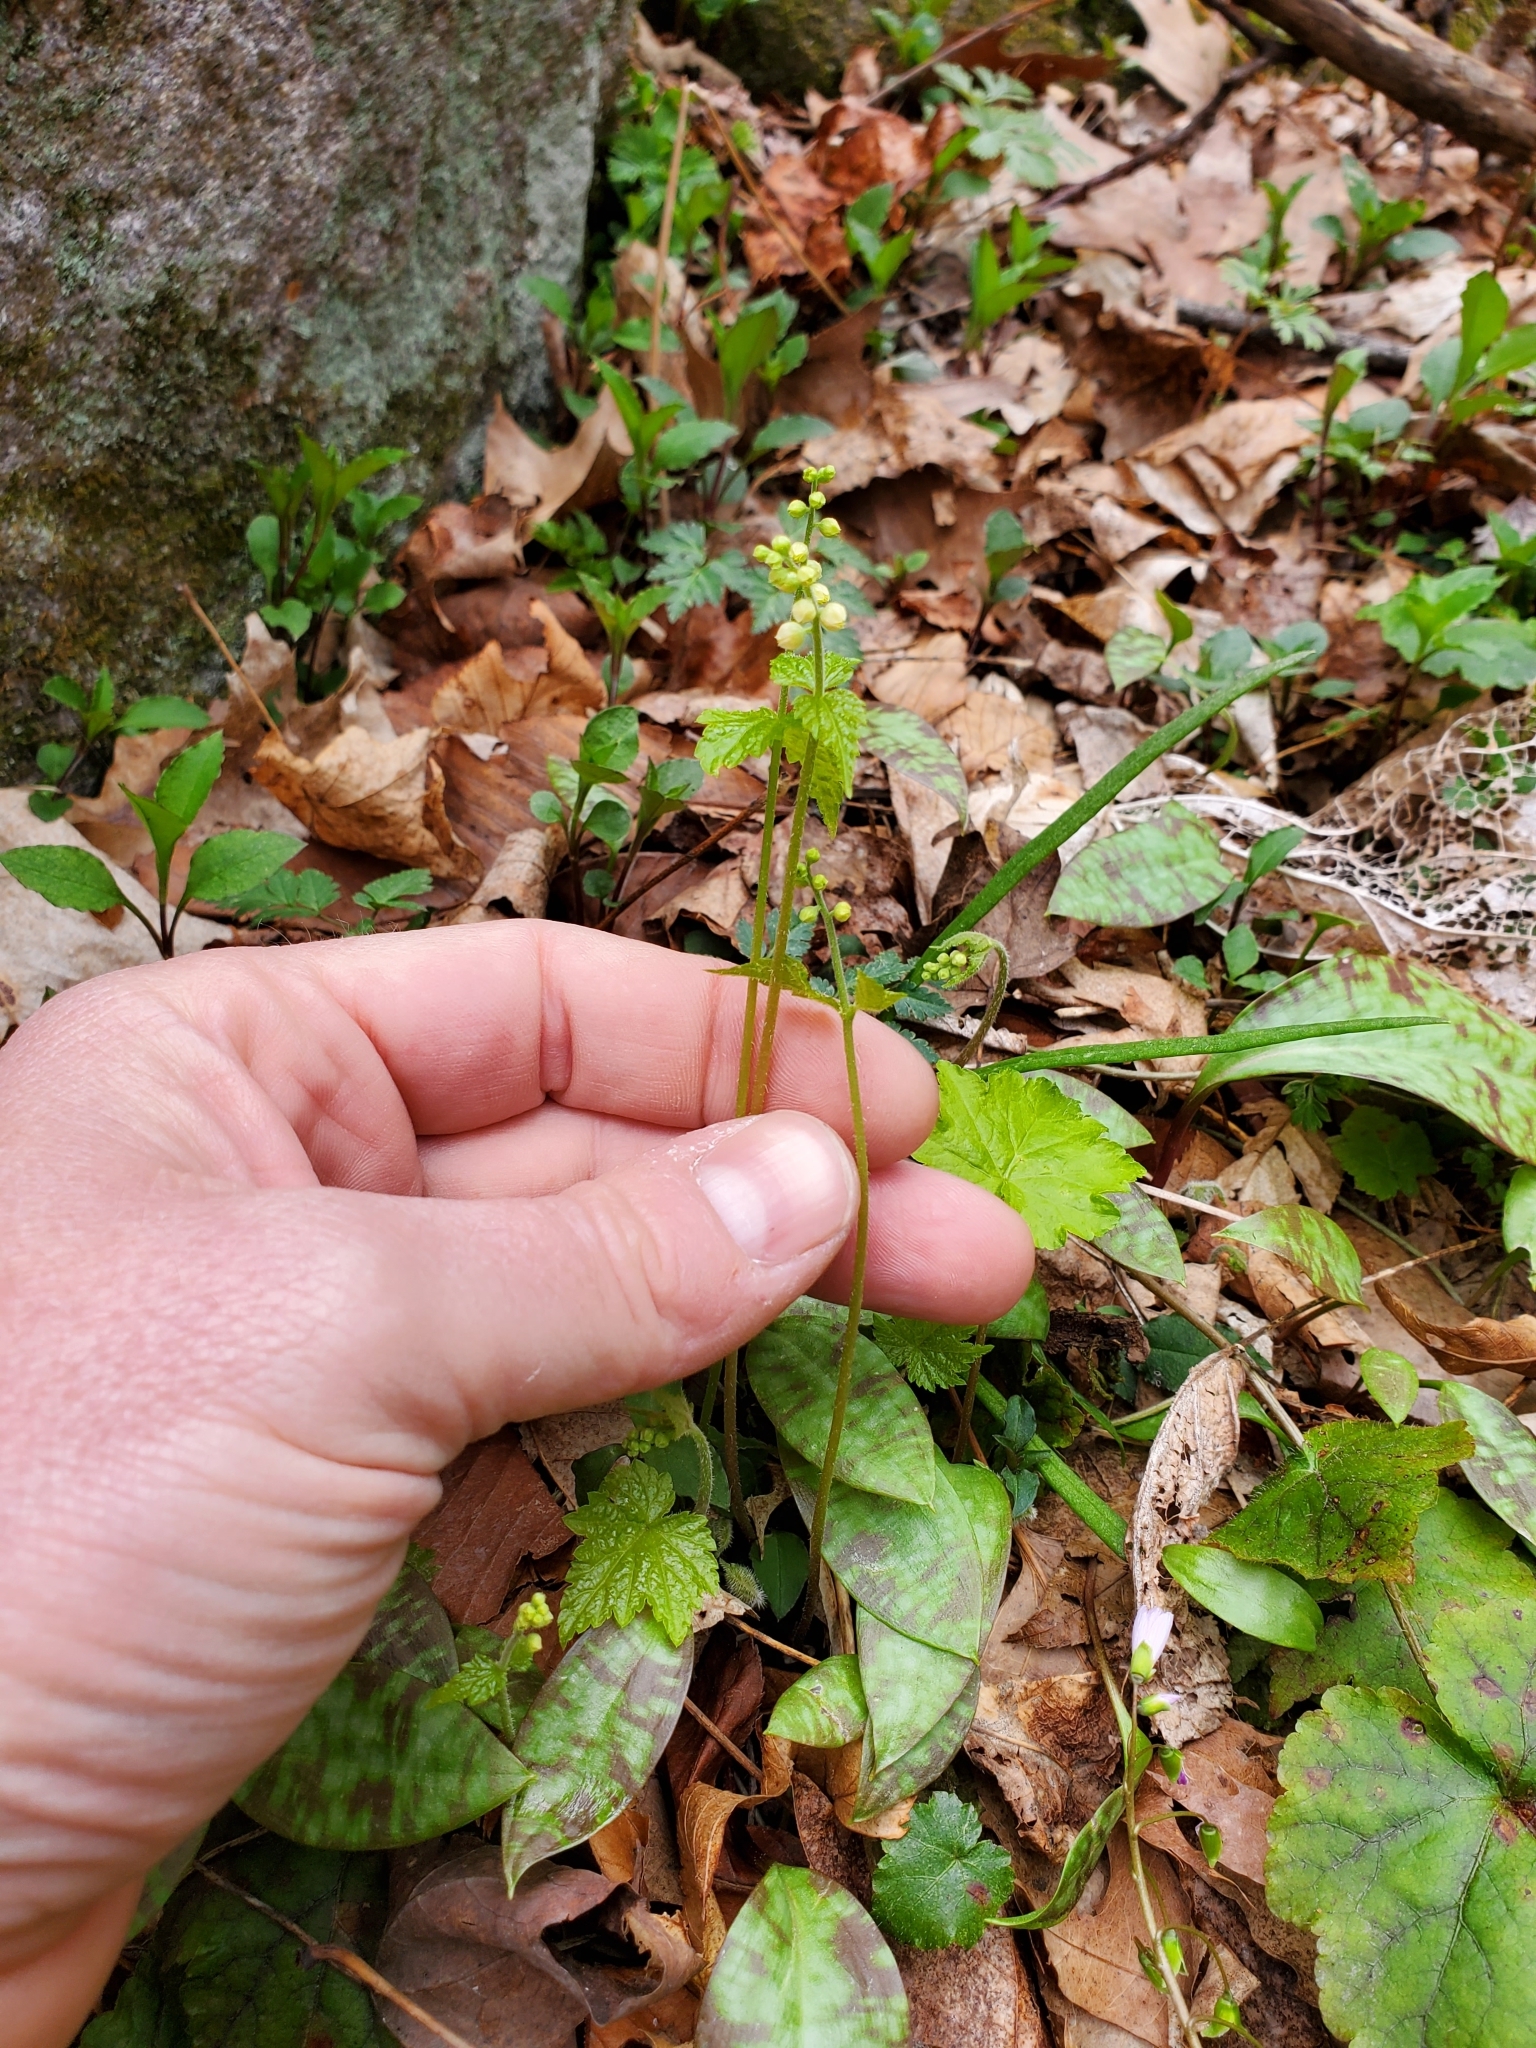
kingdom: Plantae
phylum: Tracheophyta
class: Magnoliopsida
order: Saxifragales
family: Saxifragaceae
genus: Mitella
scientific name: Mitella diphylla
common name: Coolwort
